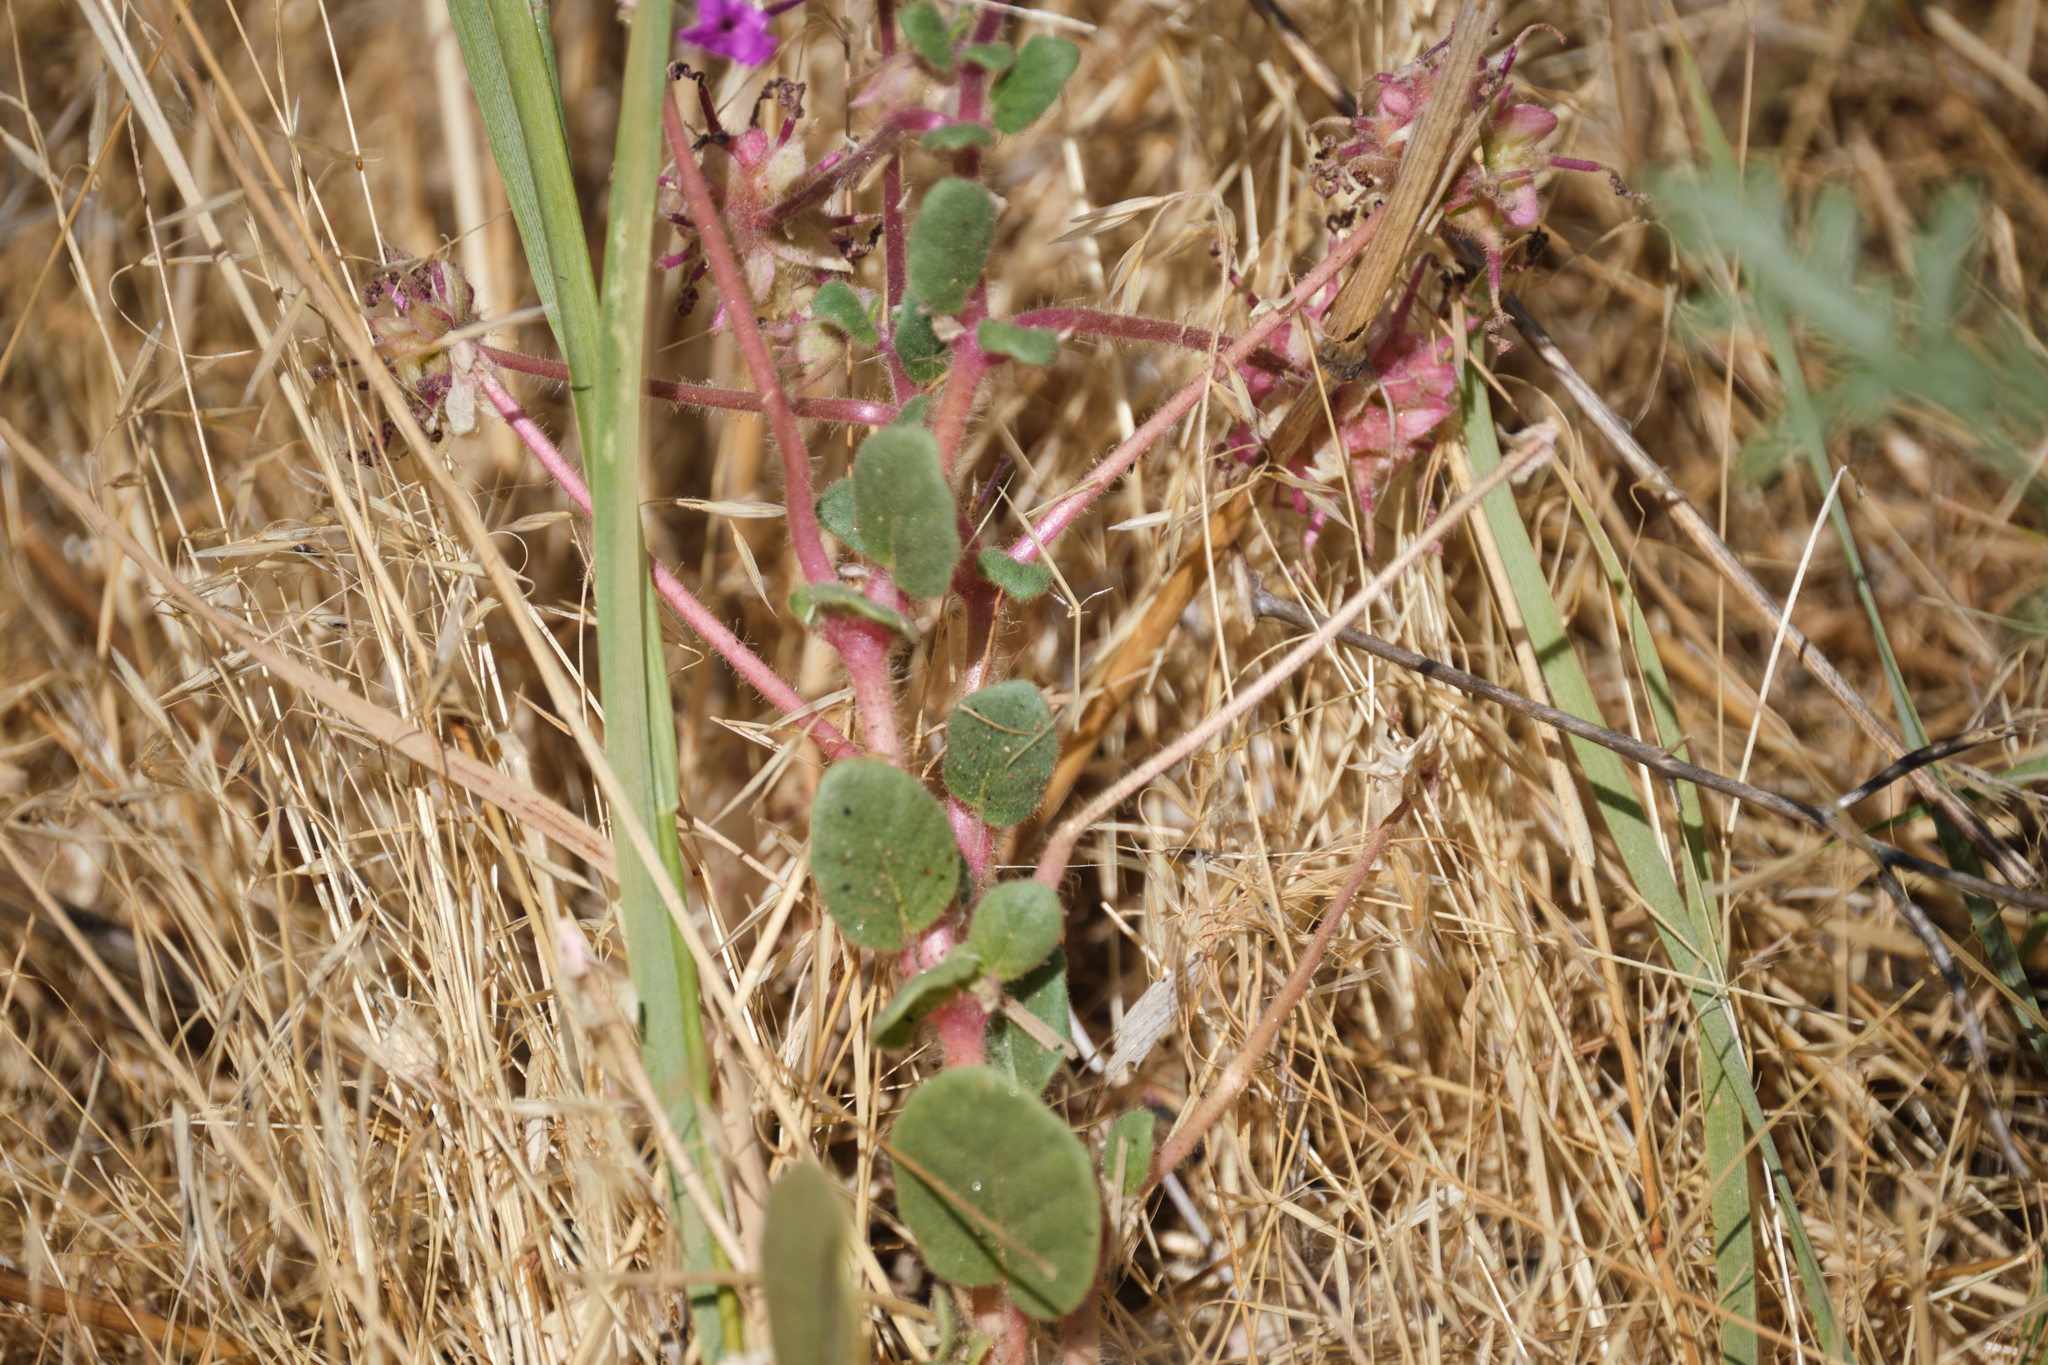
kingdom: Plantae
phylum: Tracheophyta
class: Magnoliopsida
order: Caryophyllales
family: Nyctaginaceae
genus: Abronia
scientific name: Abronia villosa
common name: Desert sand-verbena
